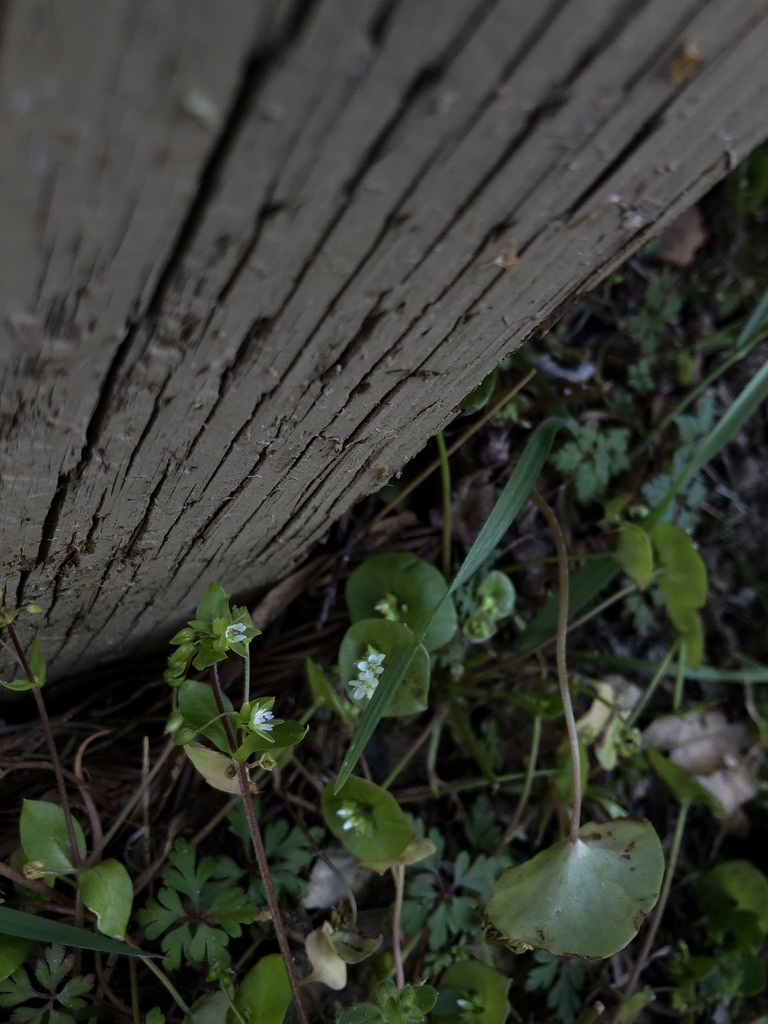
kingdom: Plantae
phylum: Tracheophyta
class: Magnoliopsida
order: Caryophyllales
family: Montiaceae
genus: Claytonia
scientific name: Claytonia perfoliata
